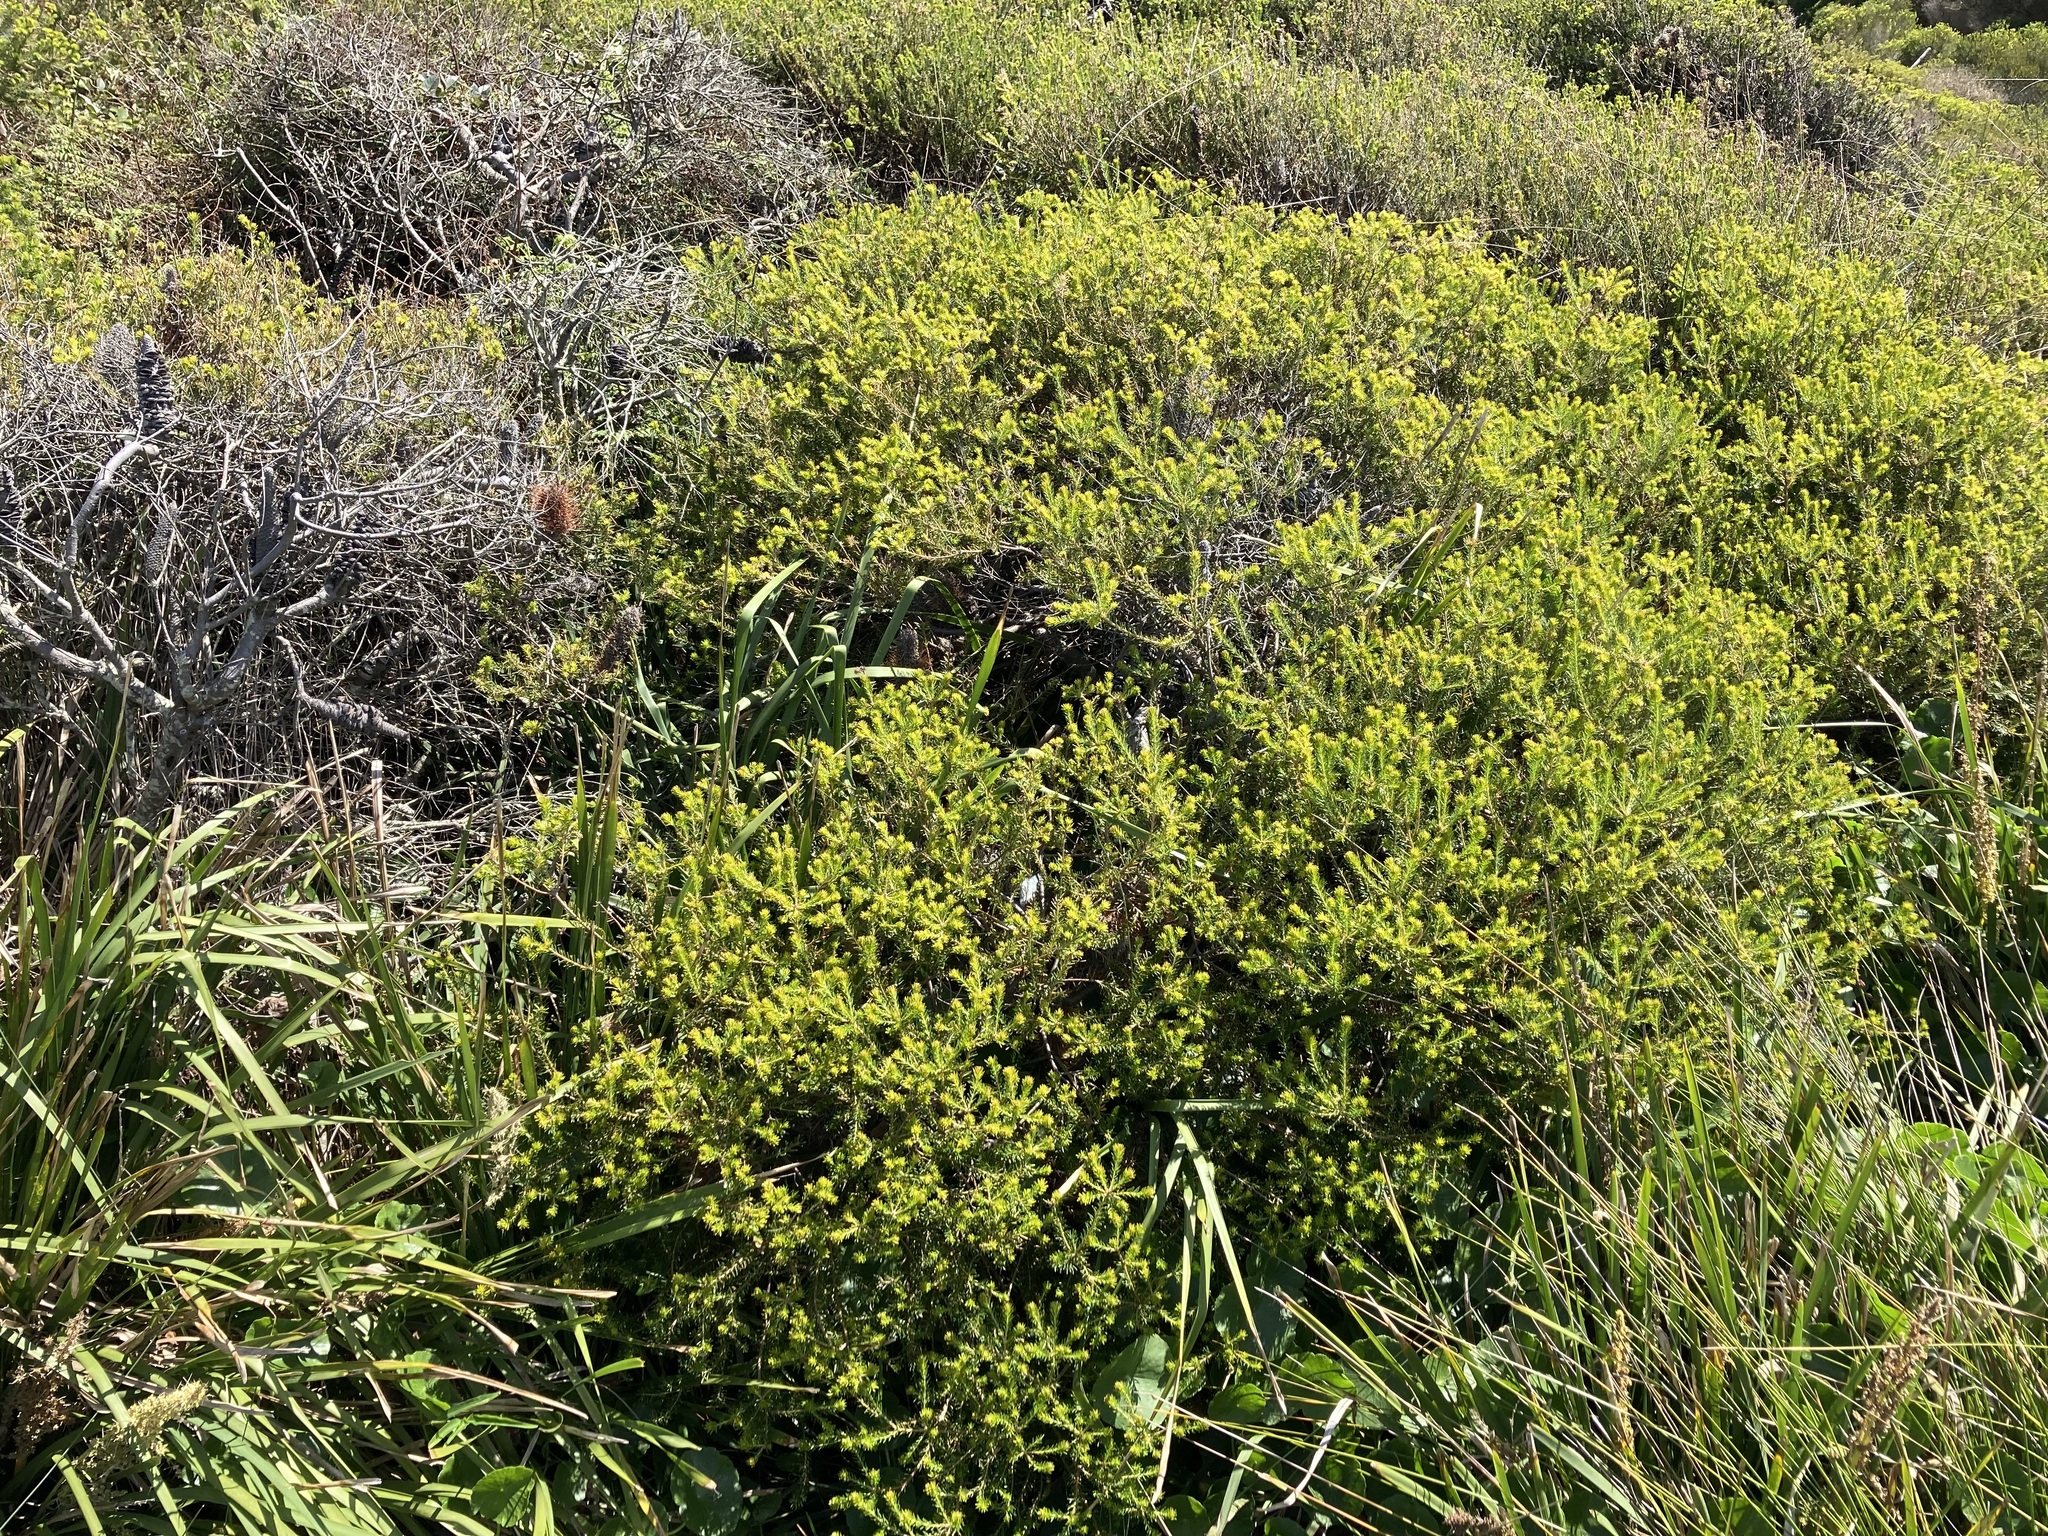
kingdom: Plantae
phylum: Tracheophyta
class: Magnoliopsida
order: Proteales
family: Proteaceae
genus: Banksia
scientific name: Banksia ericifolia
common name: Heath-leaf banksia
